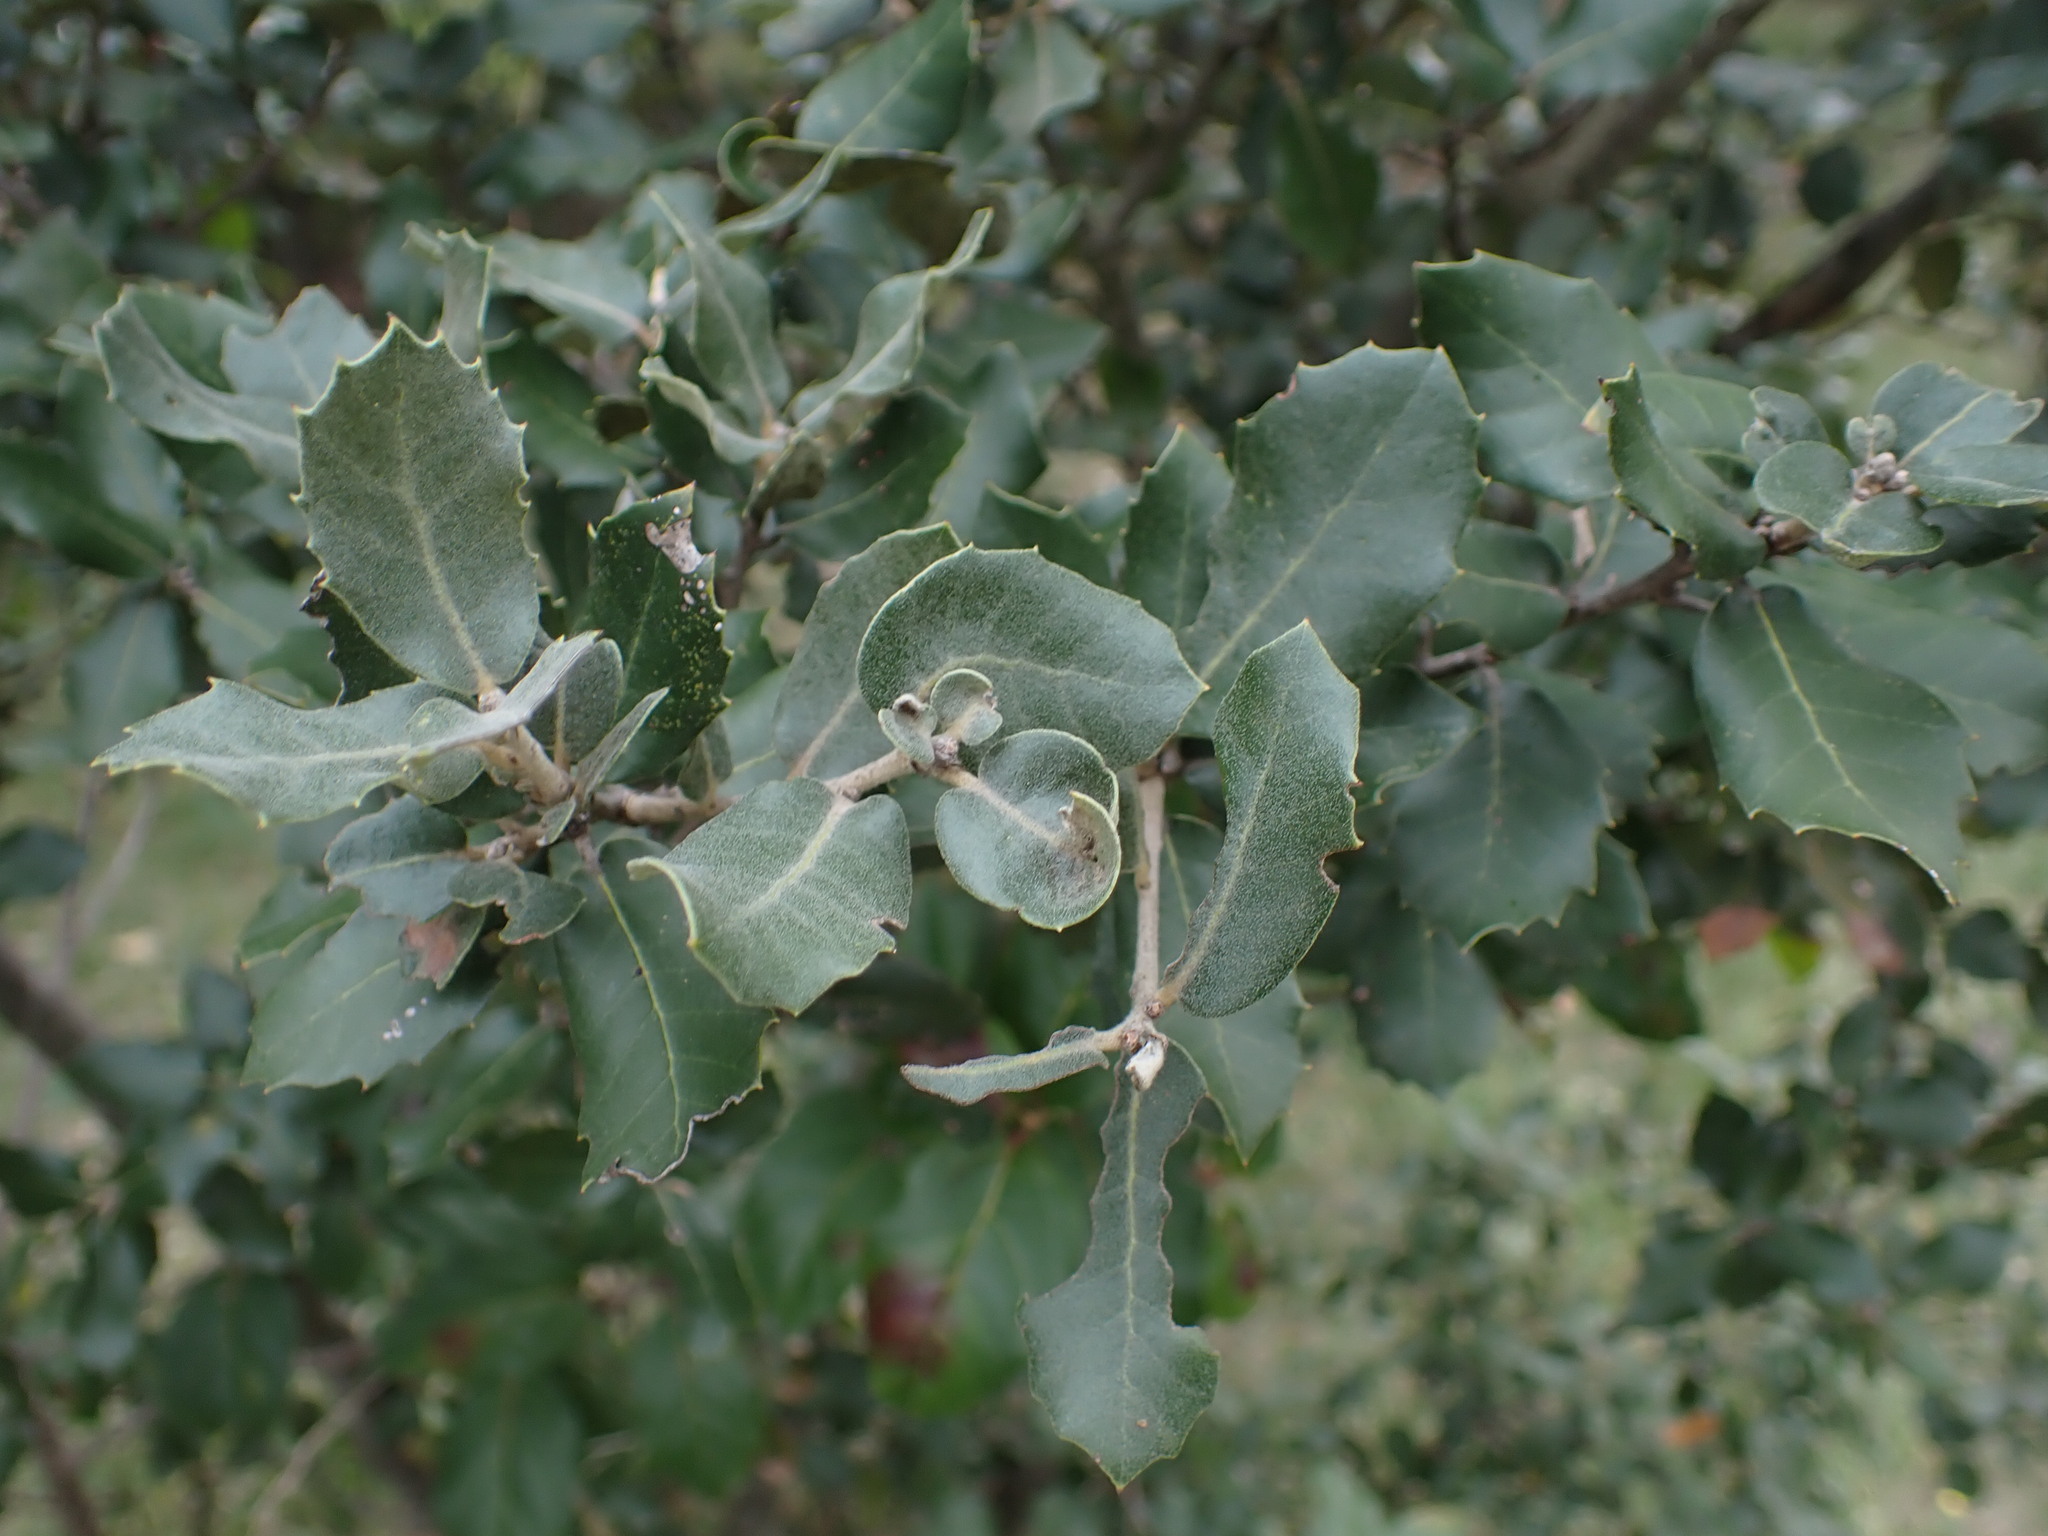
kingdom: Plantae
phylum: Tracheophyta
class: Magnoliopsida
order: Fagales
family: Fagaceae
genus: Quercus
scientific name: Quercus ilex
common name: Evergreen oak
